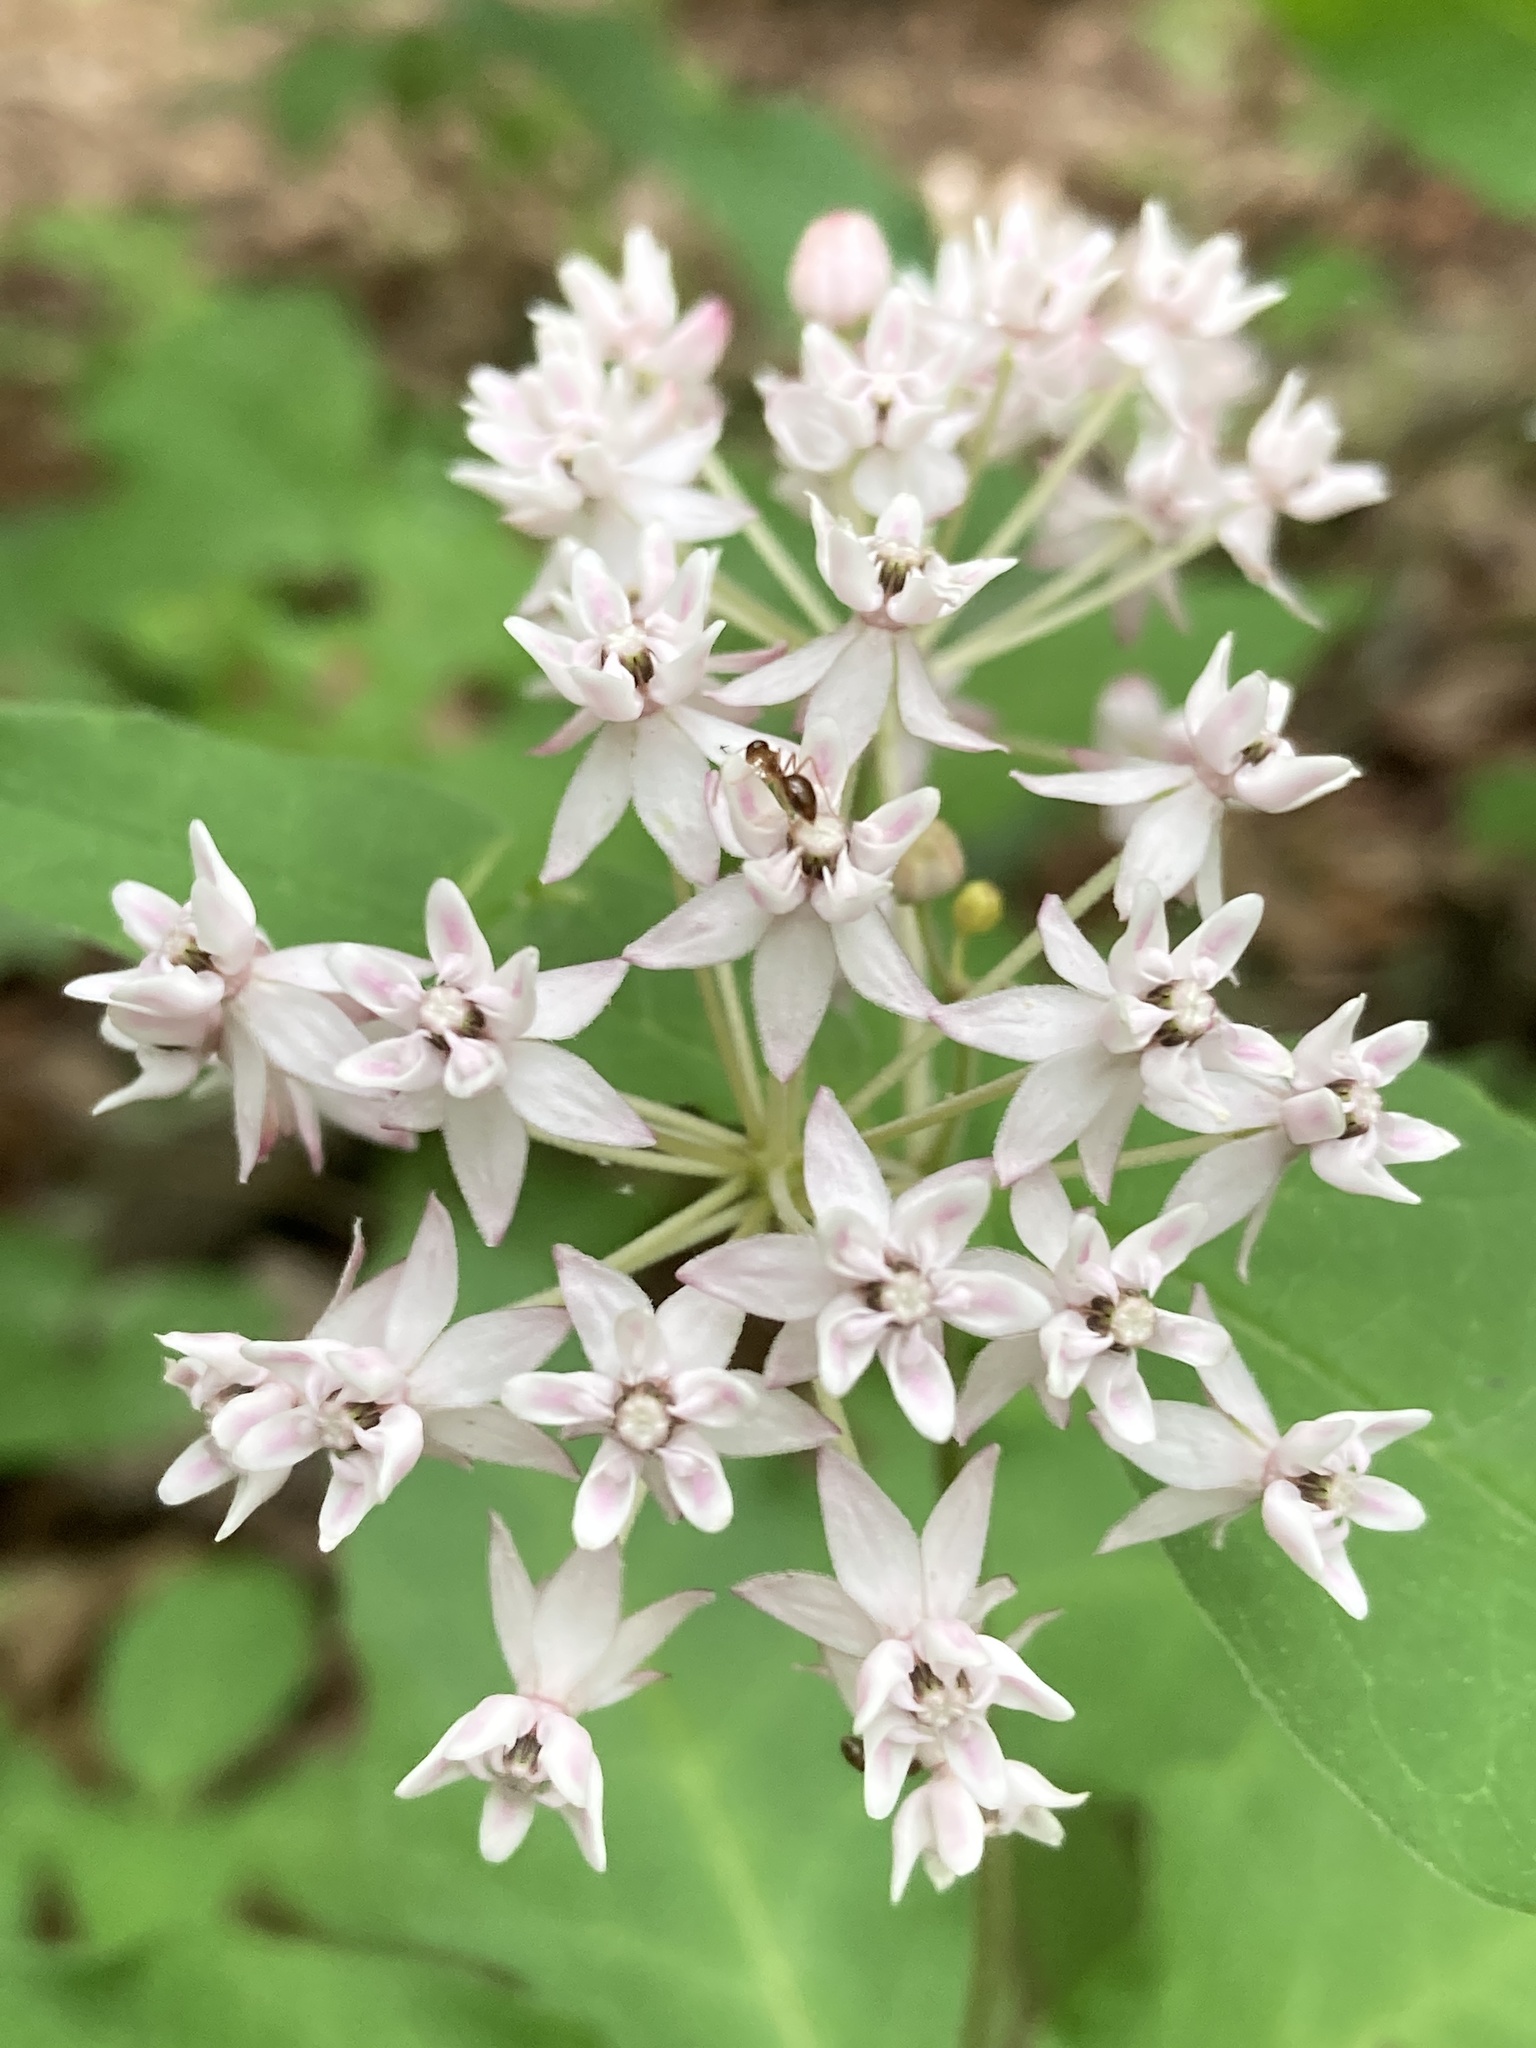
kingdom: Plantae
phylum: Tracheophyta
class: Magnoliopsida
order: Gentianales
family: Apocynaceae
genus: Asclepias
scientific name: Asclepias quadrifolia
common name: Whorled milkweed
